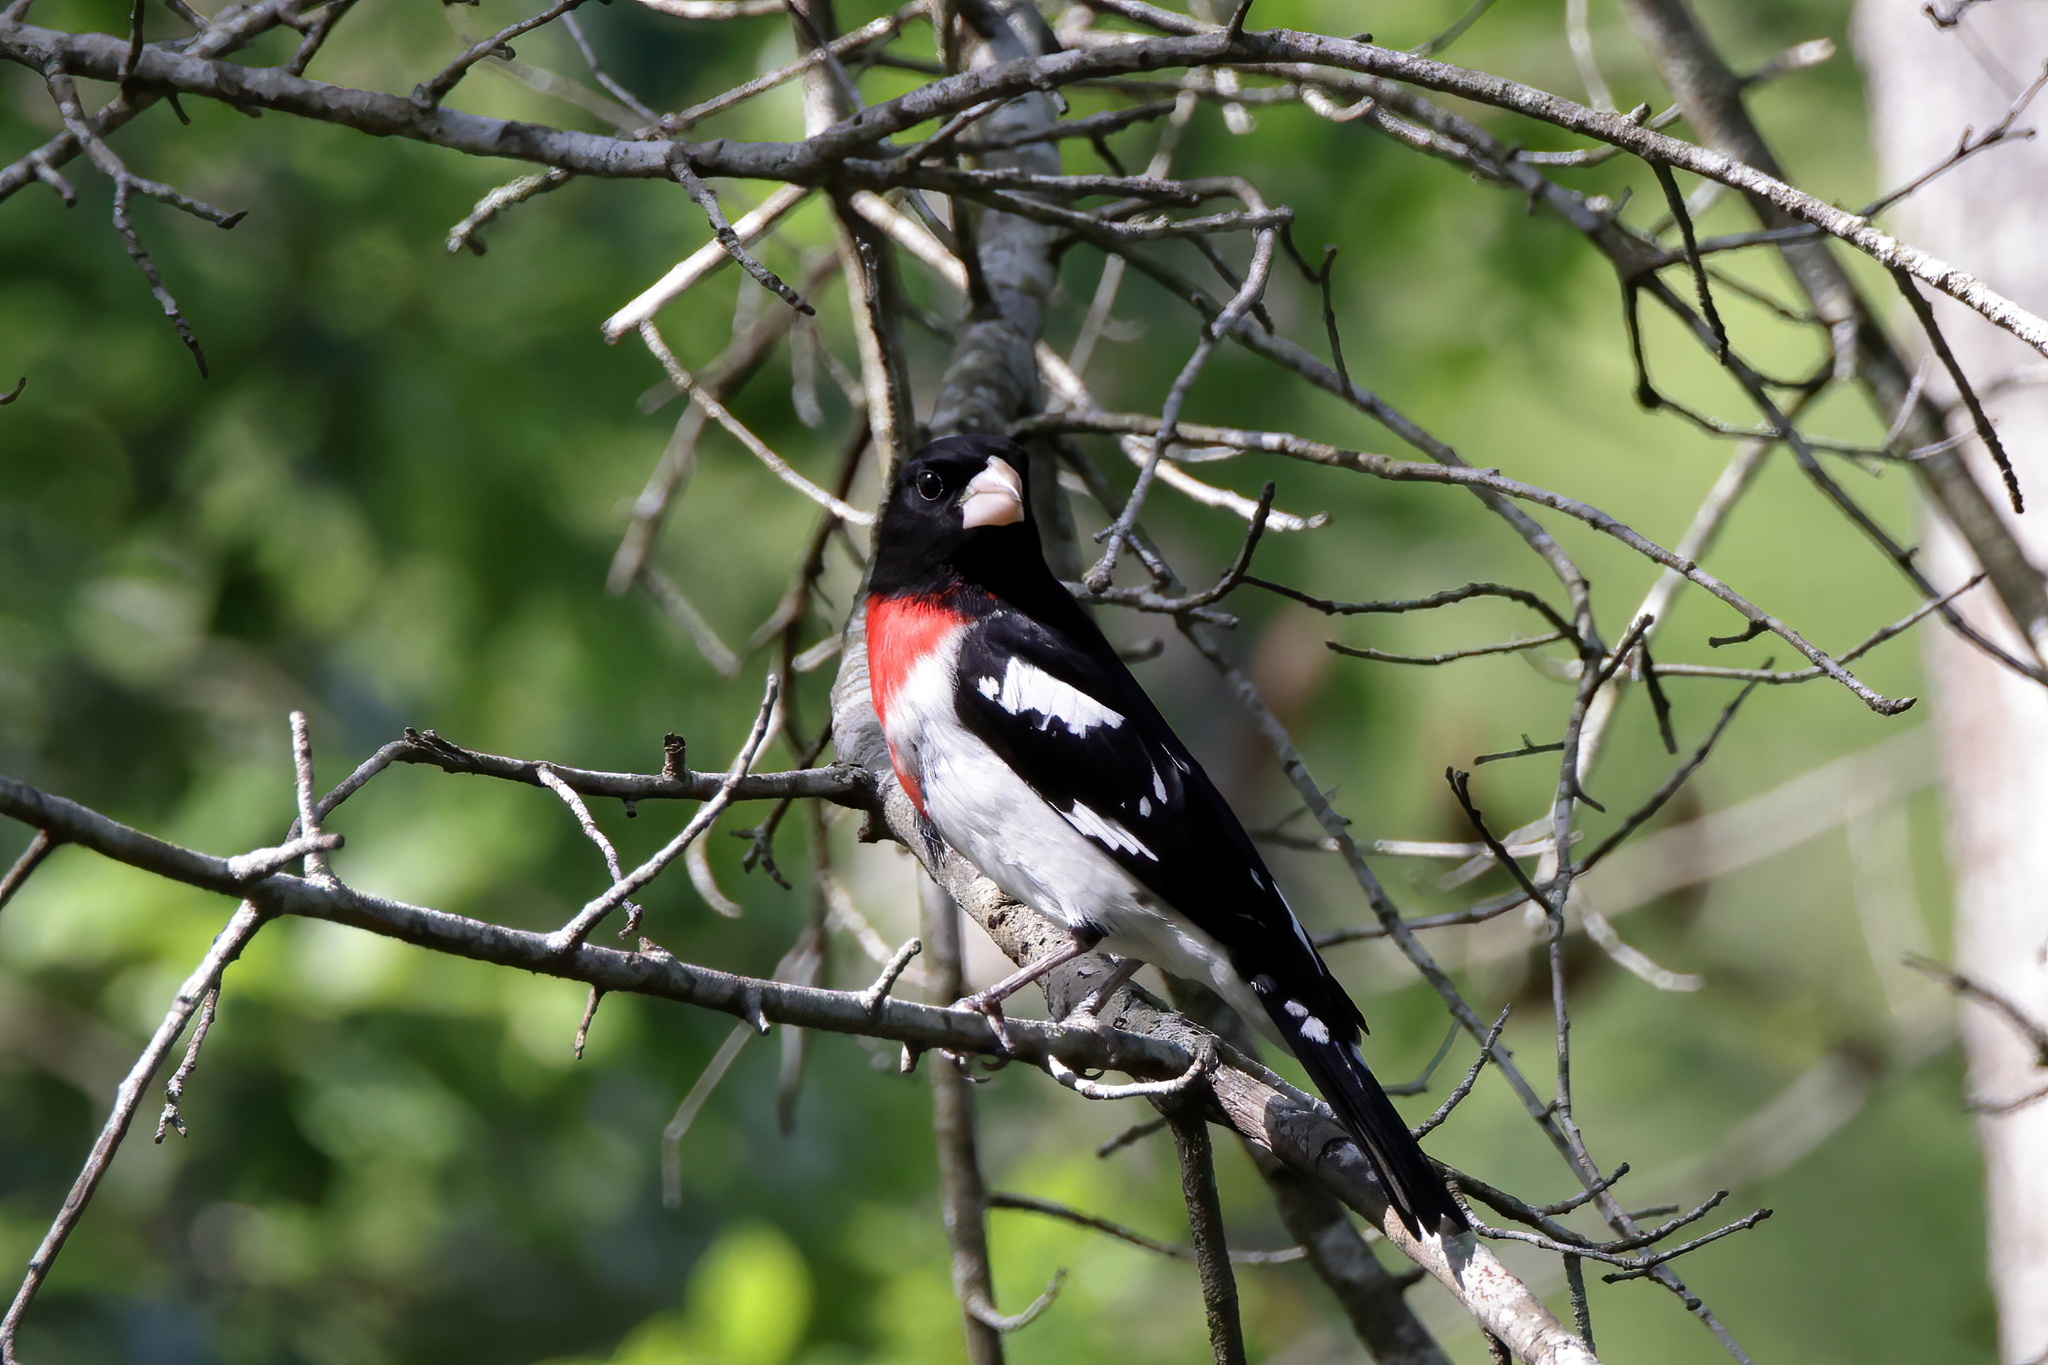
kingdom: Animalia
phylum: Chordata
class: Aves
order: Passeriformes
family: Cardinalidae
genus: Pheucticus
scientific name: Pheucticus ludovicianus
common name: Rose-breasted grosbeak
